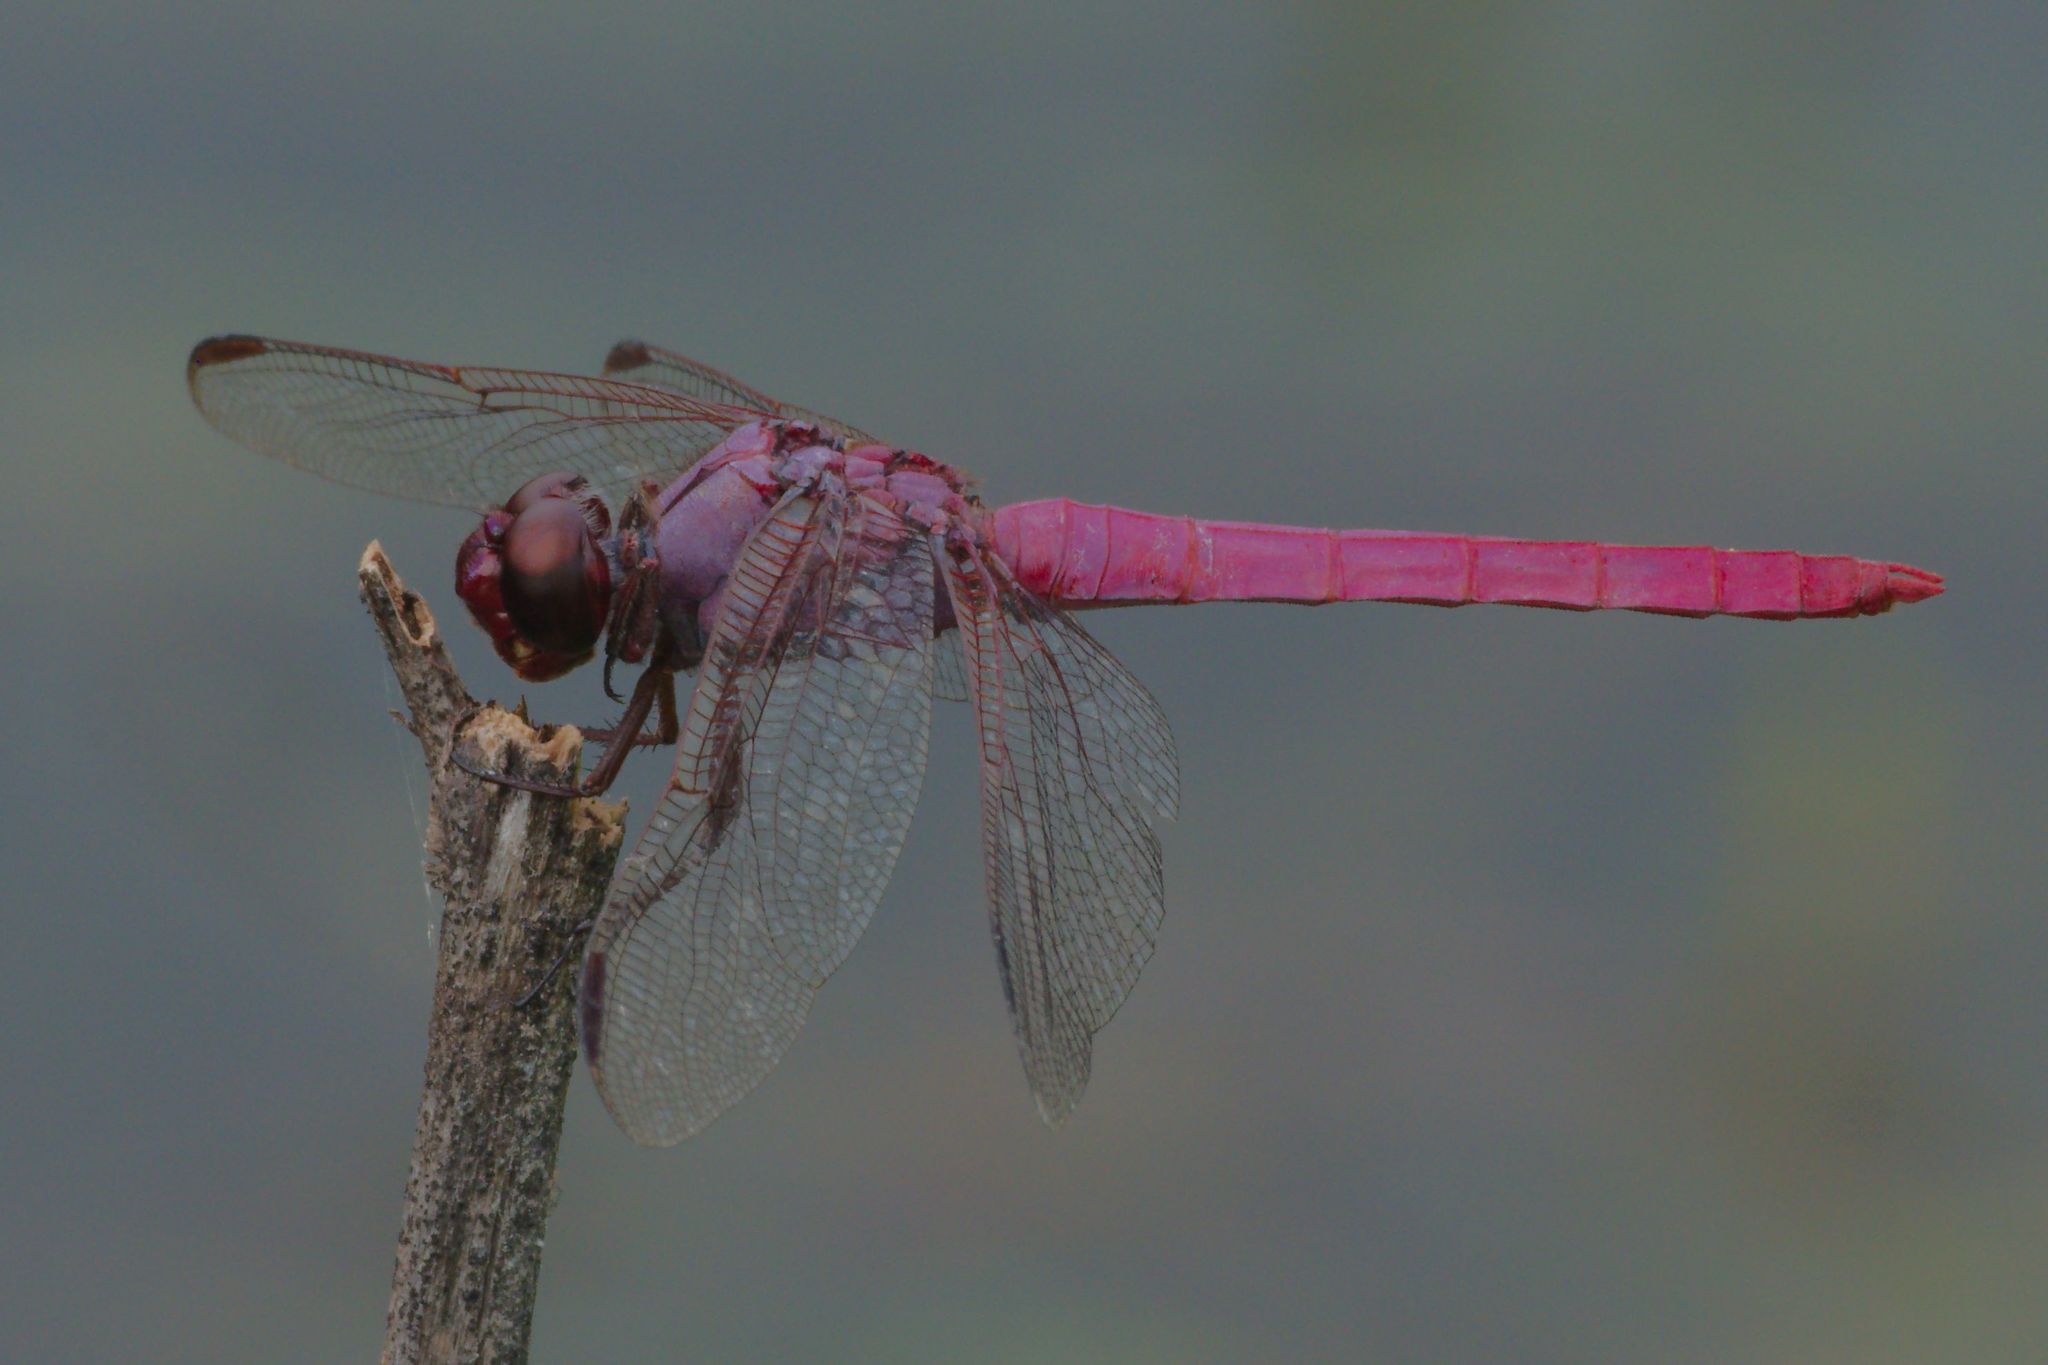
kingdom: Animalia
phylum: Arthropoda
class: Insecta
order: Odonata
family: Libellulidae
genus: Orthemis
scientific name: Orthemis ferruginea
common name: Roseate skimmer
